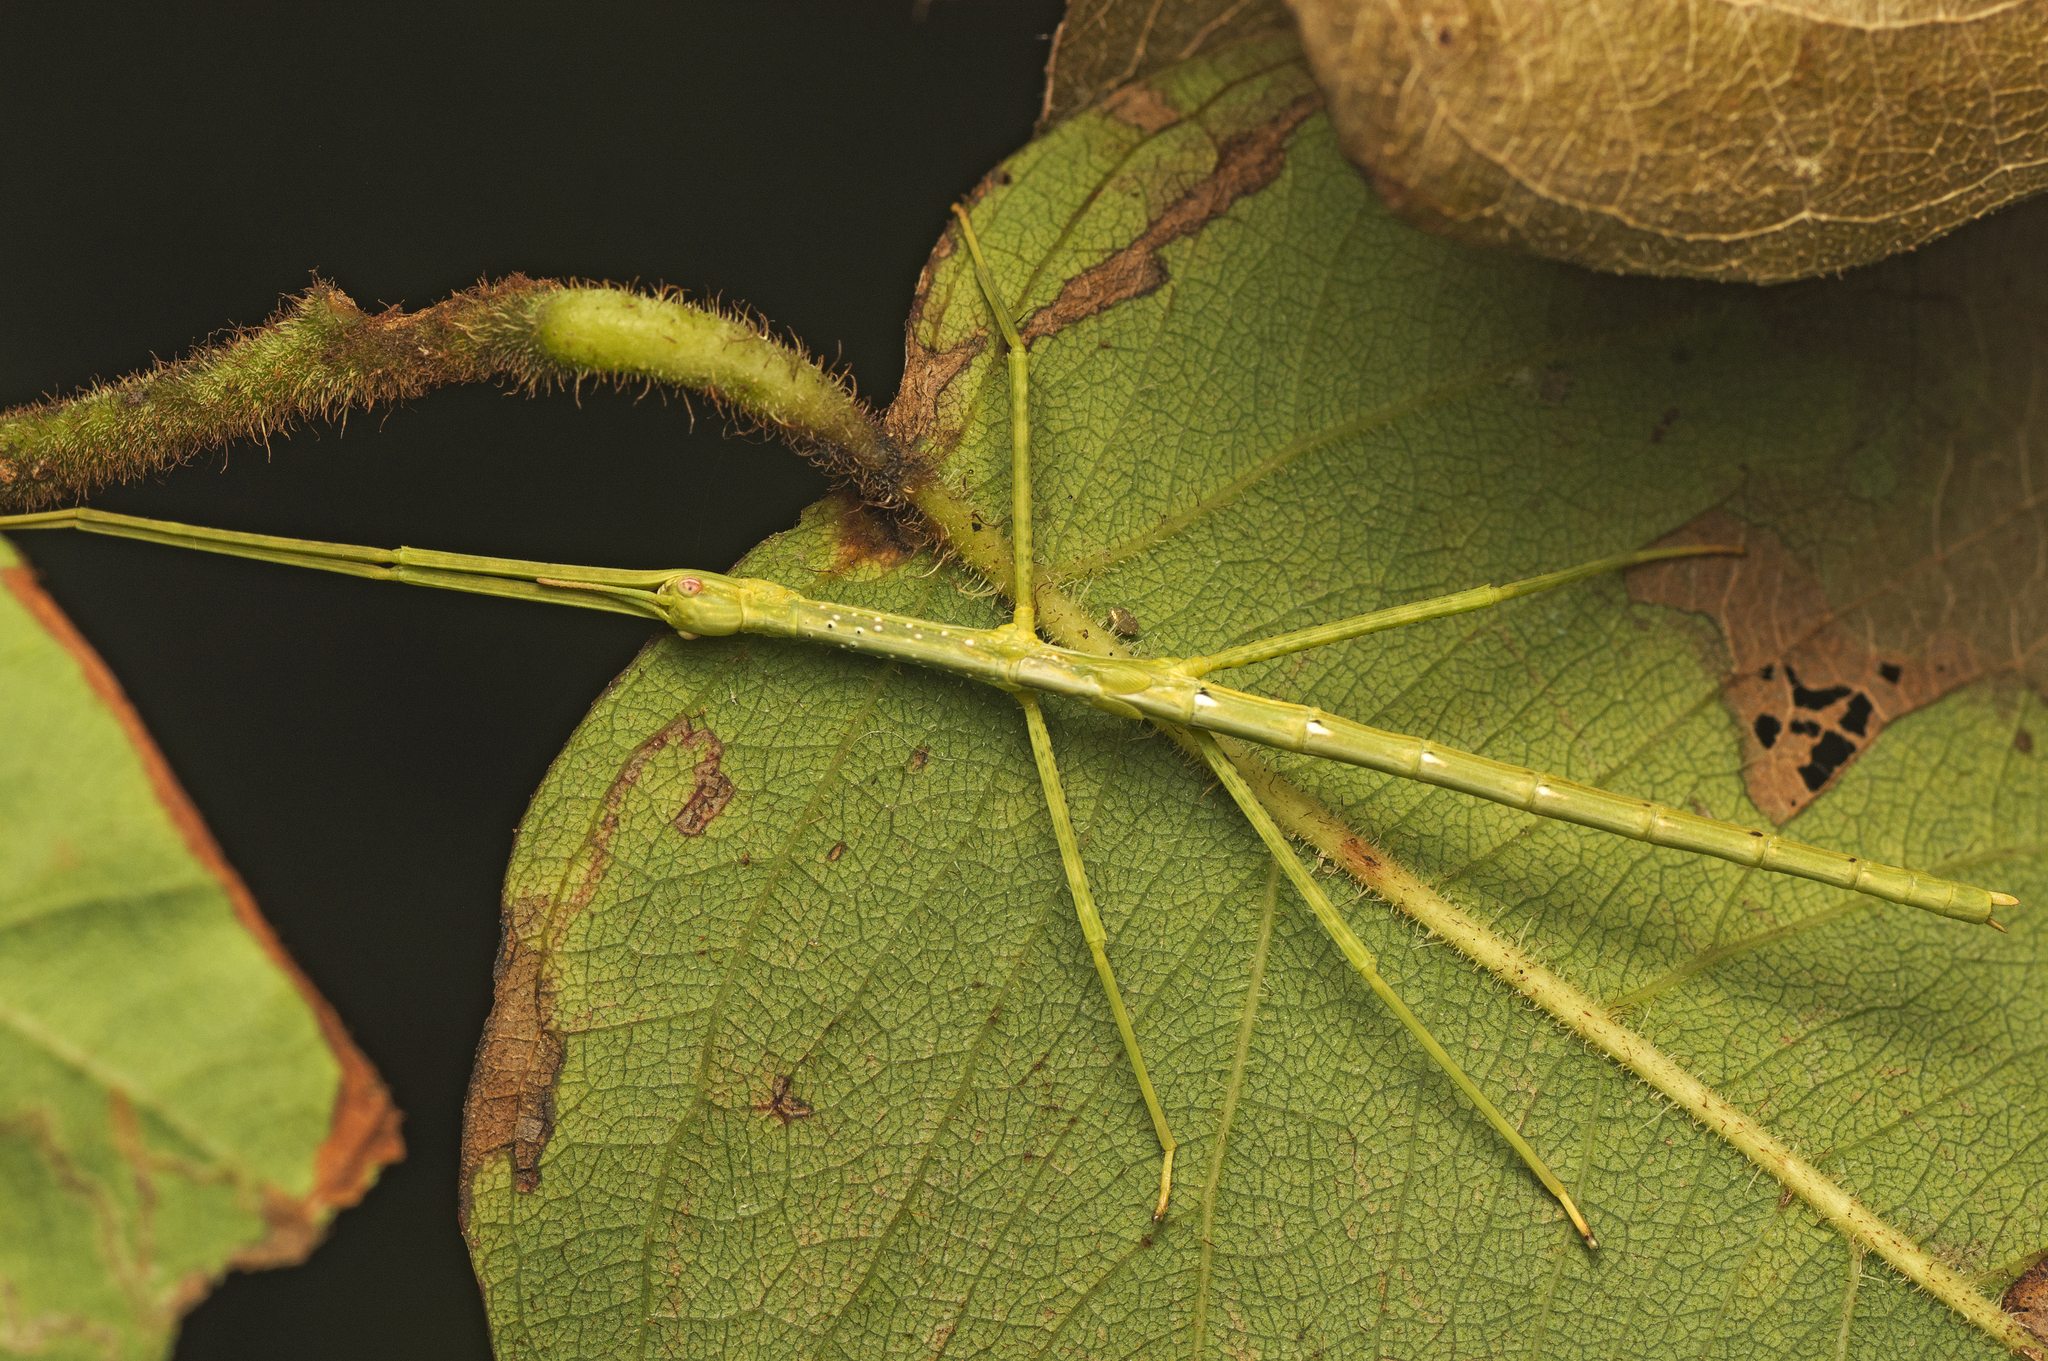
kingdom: Animalia
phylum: Arthropoda
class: Insecta
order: Phasmida
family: Phasmatidae
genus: Anchiale
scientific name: Anchiale austrotessulata
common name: Tessellated stick-insect
